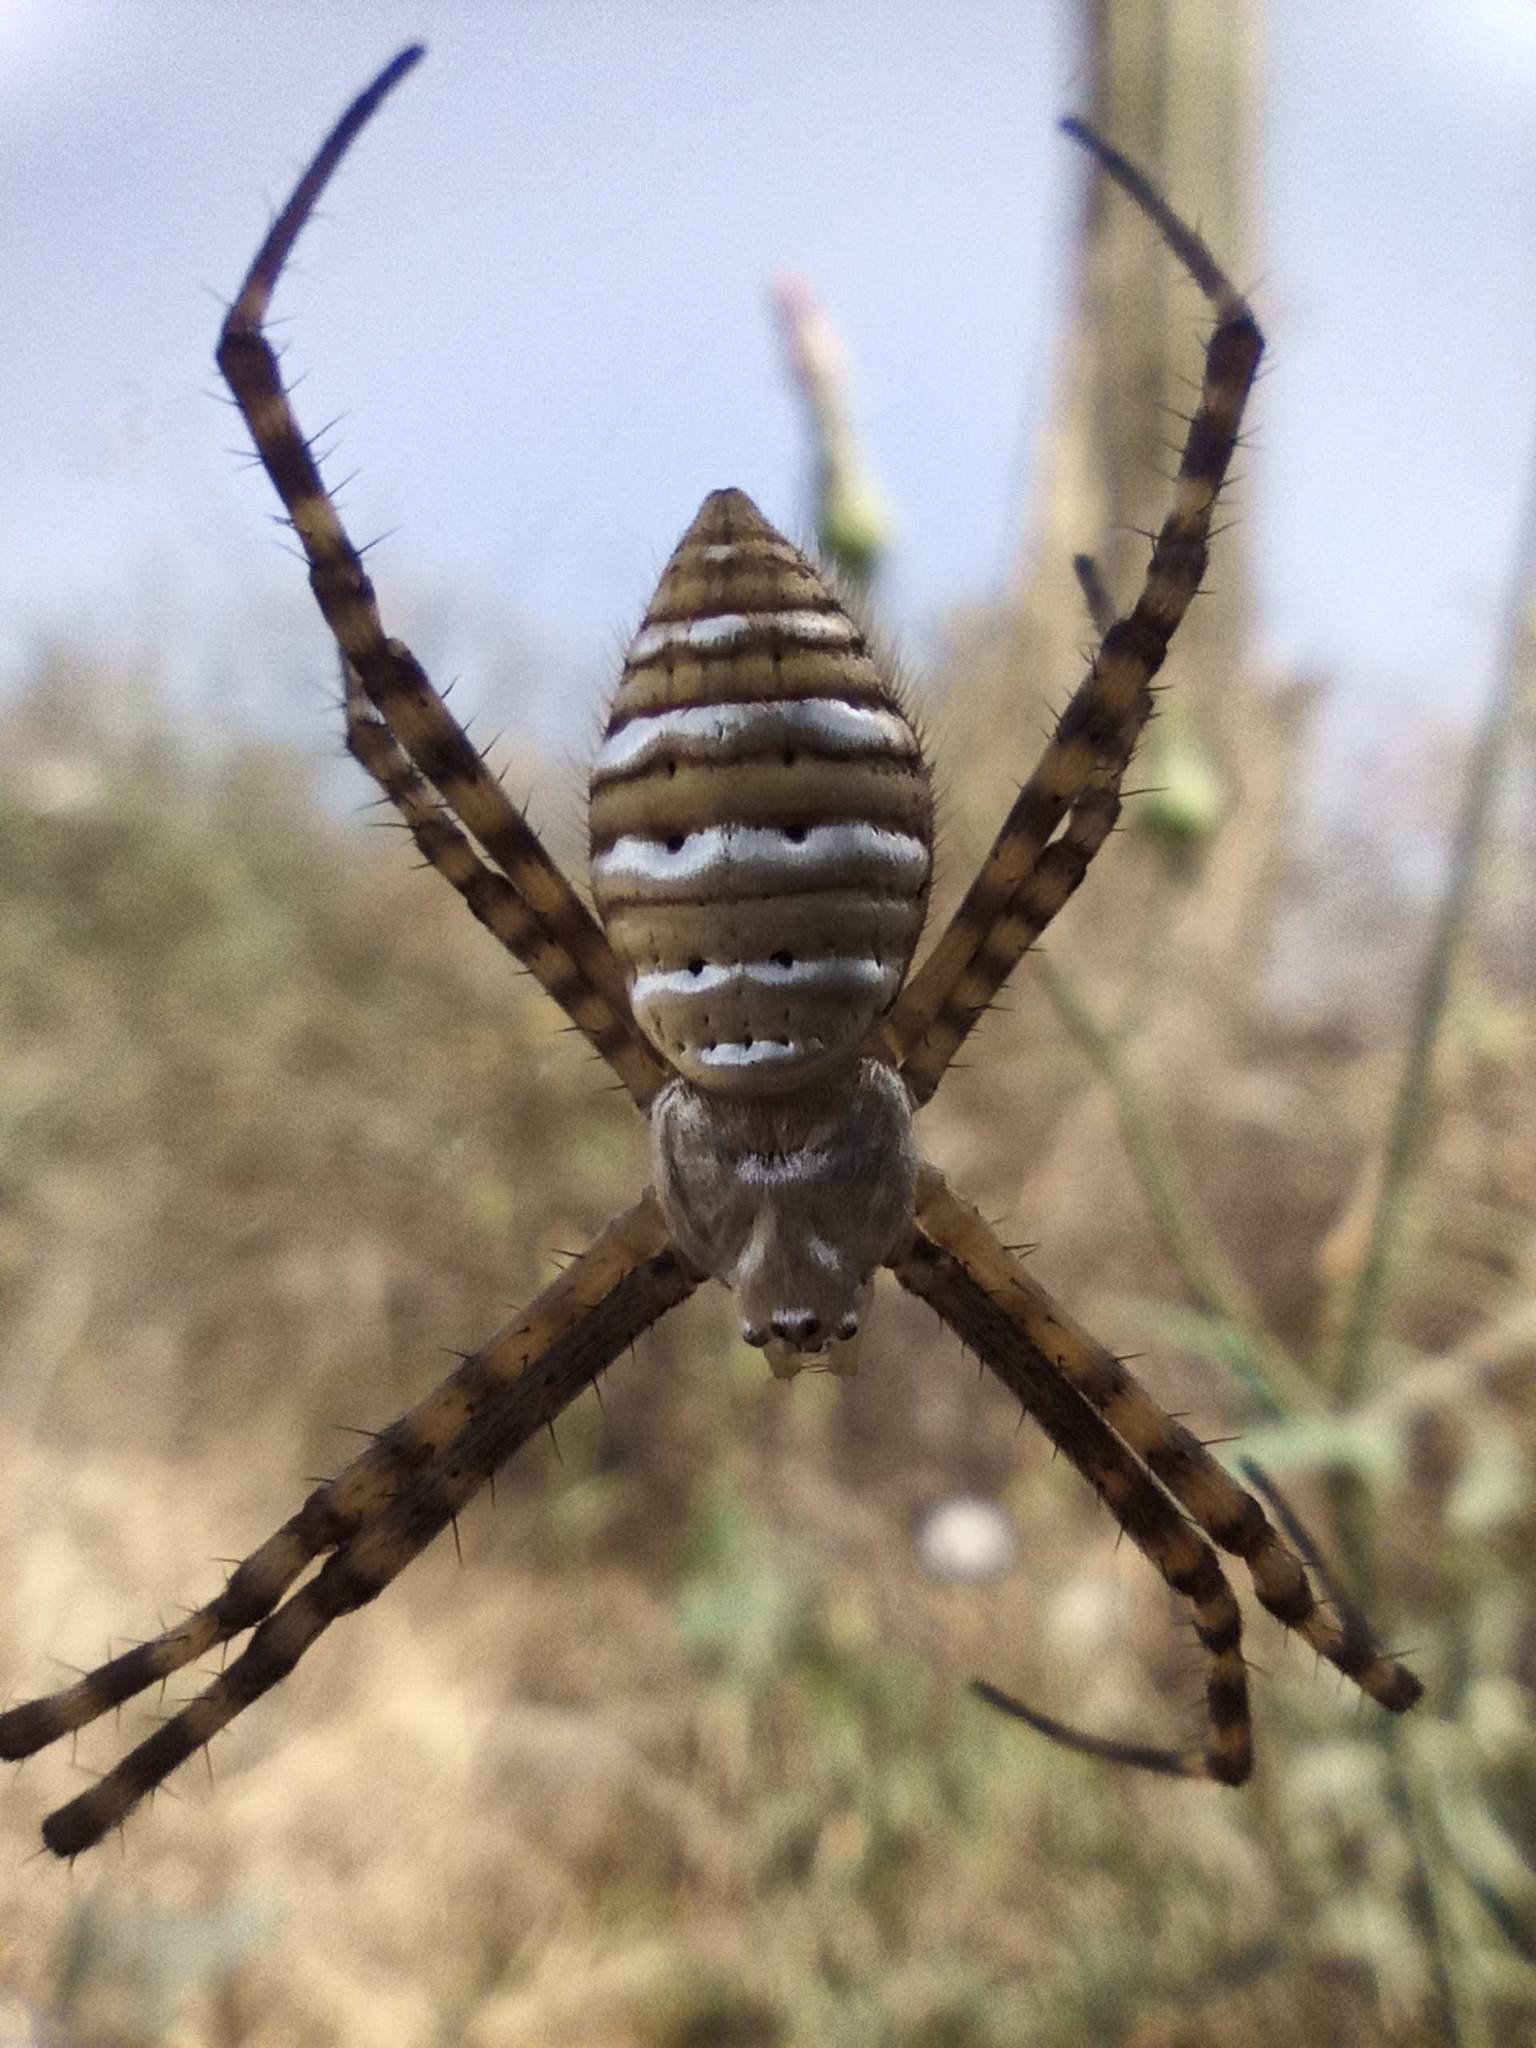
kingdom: Animalia
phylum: Arthropoda
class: Arachnida
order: Araneae
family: Araneidae
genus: Argiope
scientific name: Argiope trifasciata
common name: Banded garden spider
